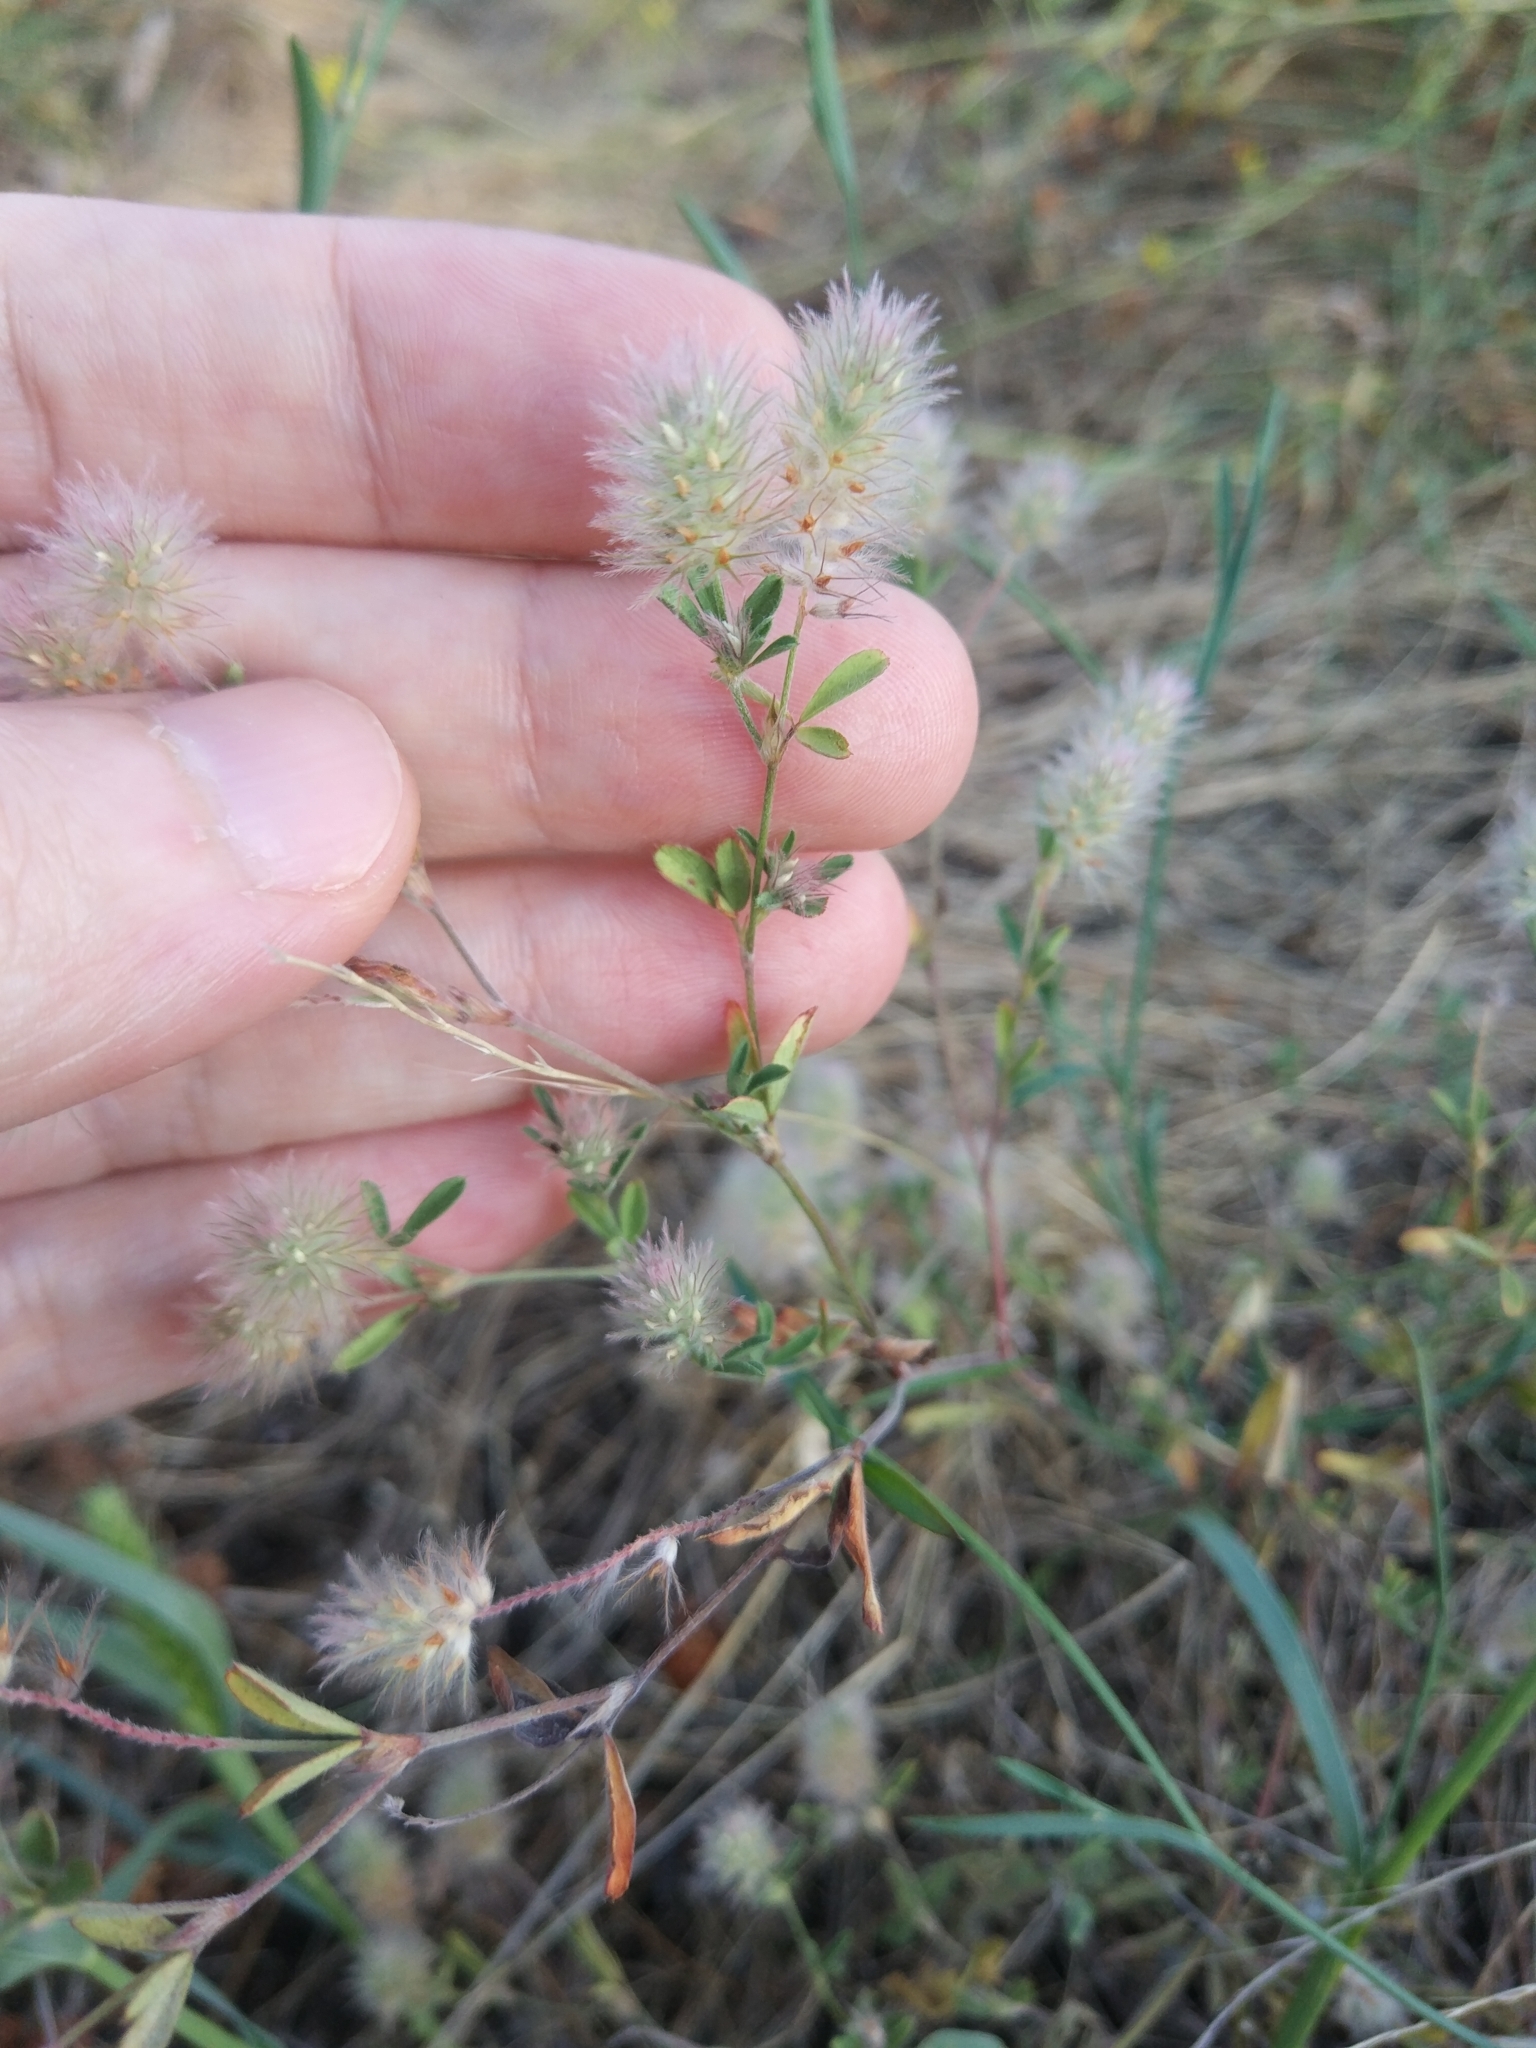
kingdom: Plantae
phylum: Tracheophyta
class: Magnoliopsida
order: Fabales
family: Fabaceae
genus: Trifolium
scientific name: Trifolium arvense
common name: Hare's-foot clover
